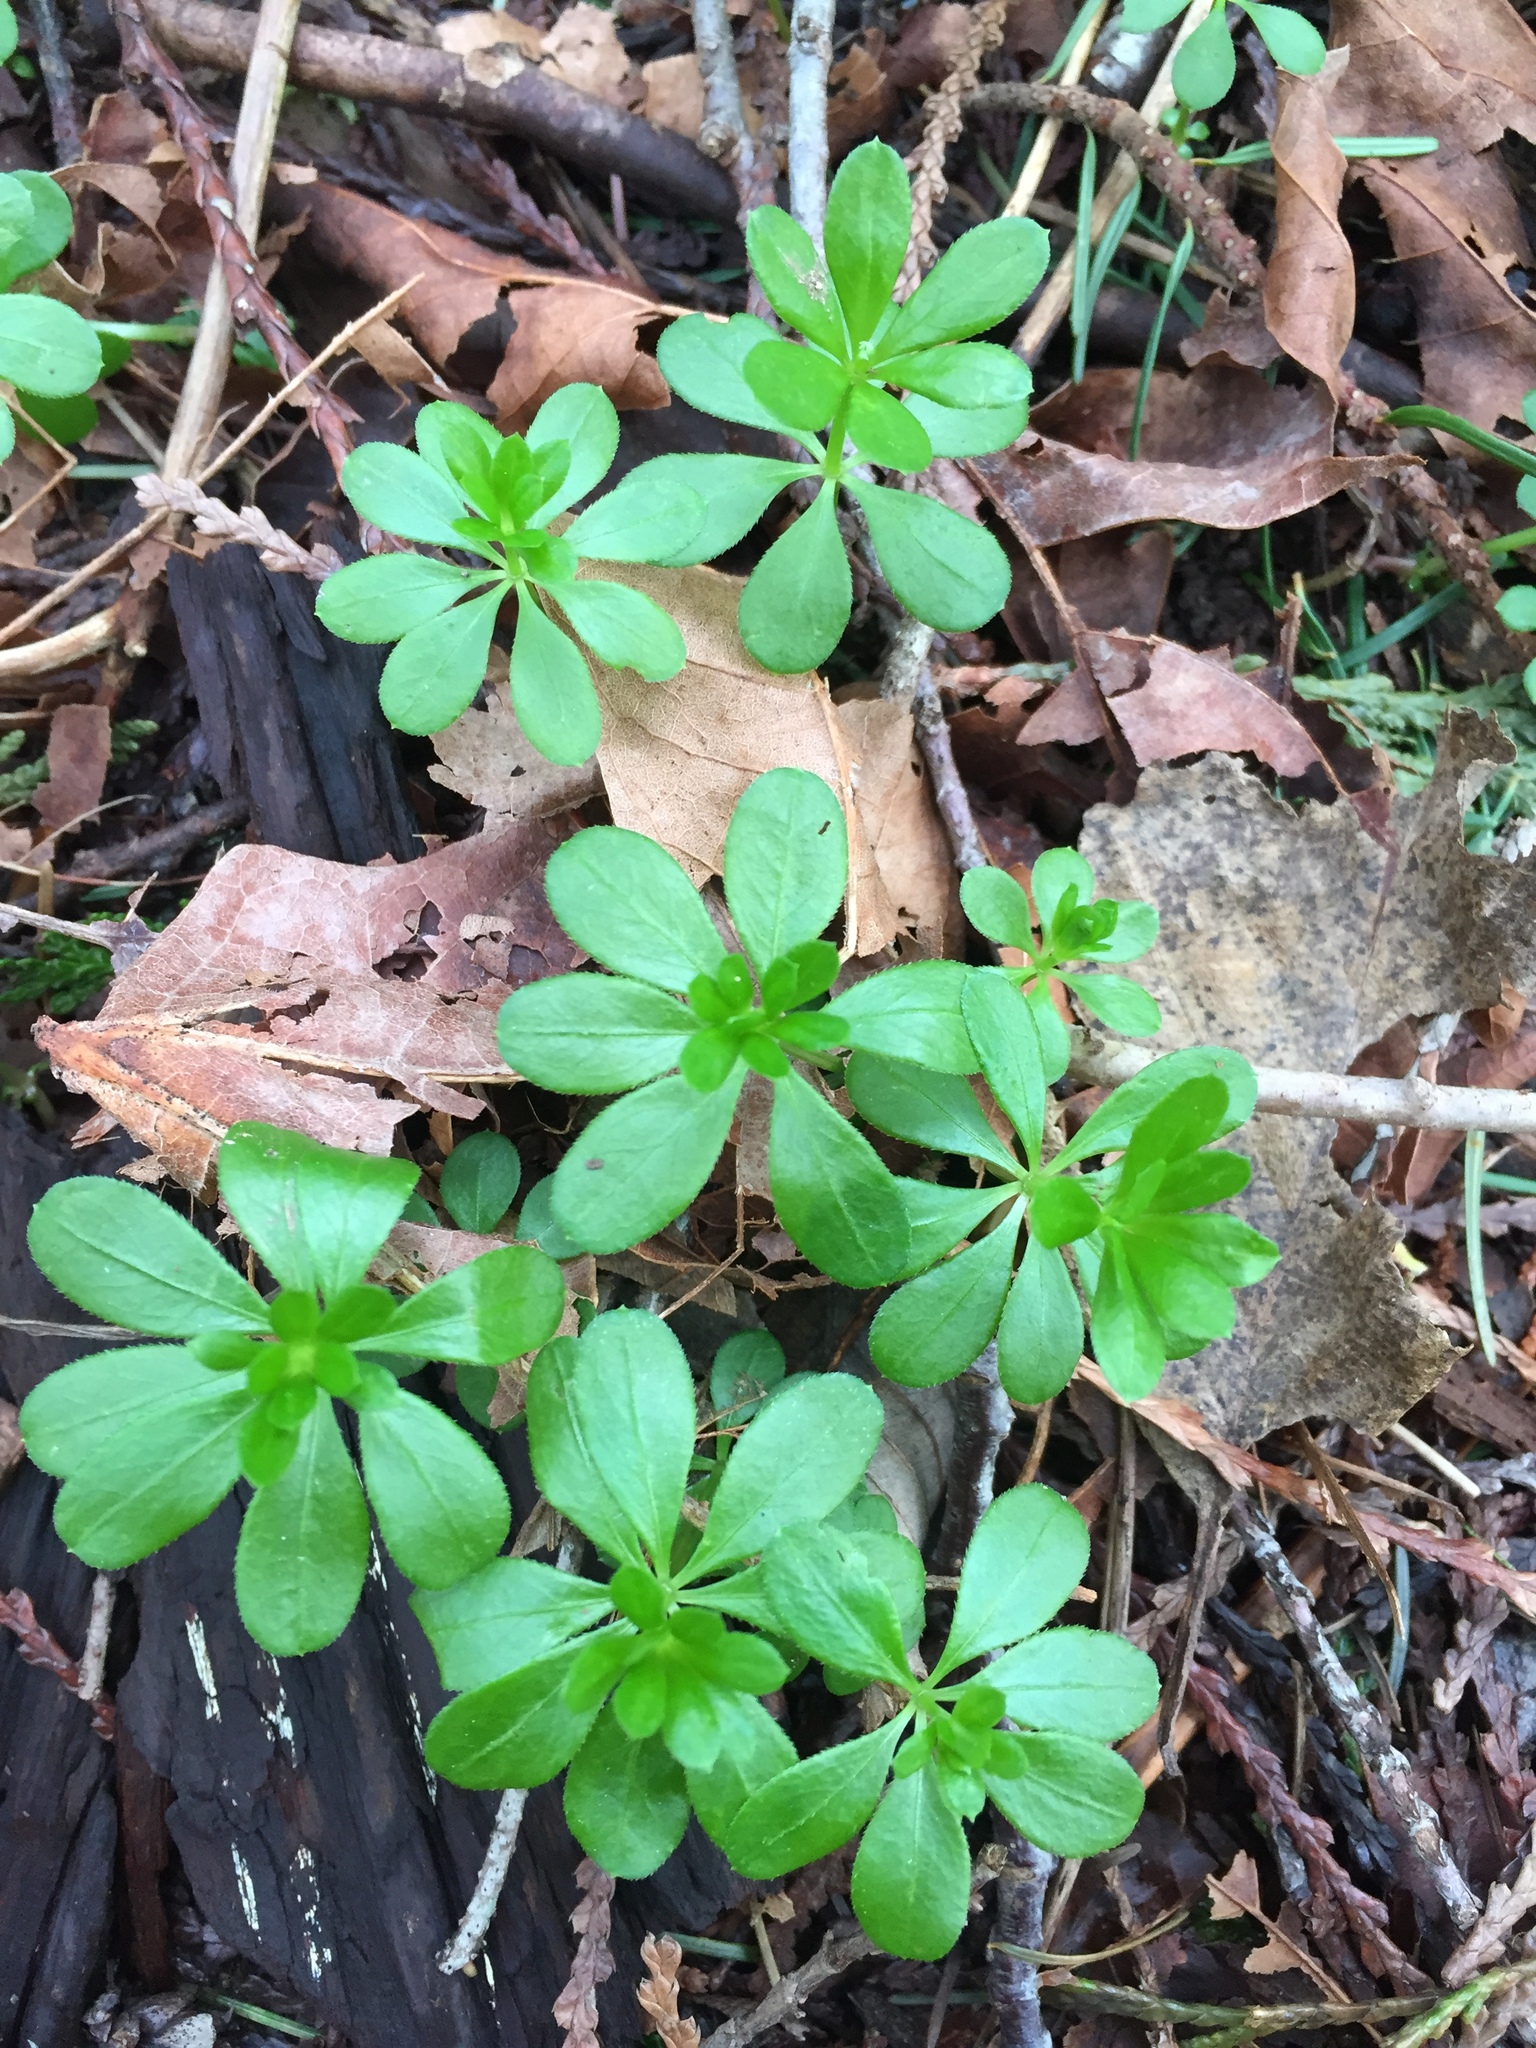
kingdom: Plantae
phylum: Tracheophyta
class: Magnoliopsida
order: Gentianales
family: Rubiaceae
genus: Galium
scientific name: Galium triflorum
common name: Fragrant bedstraw
